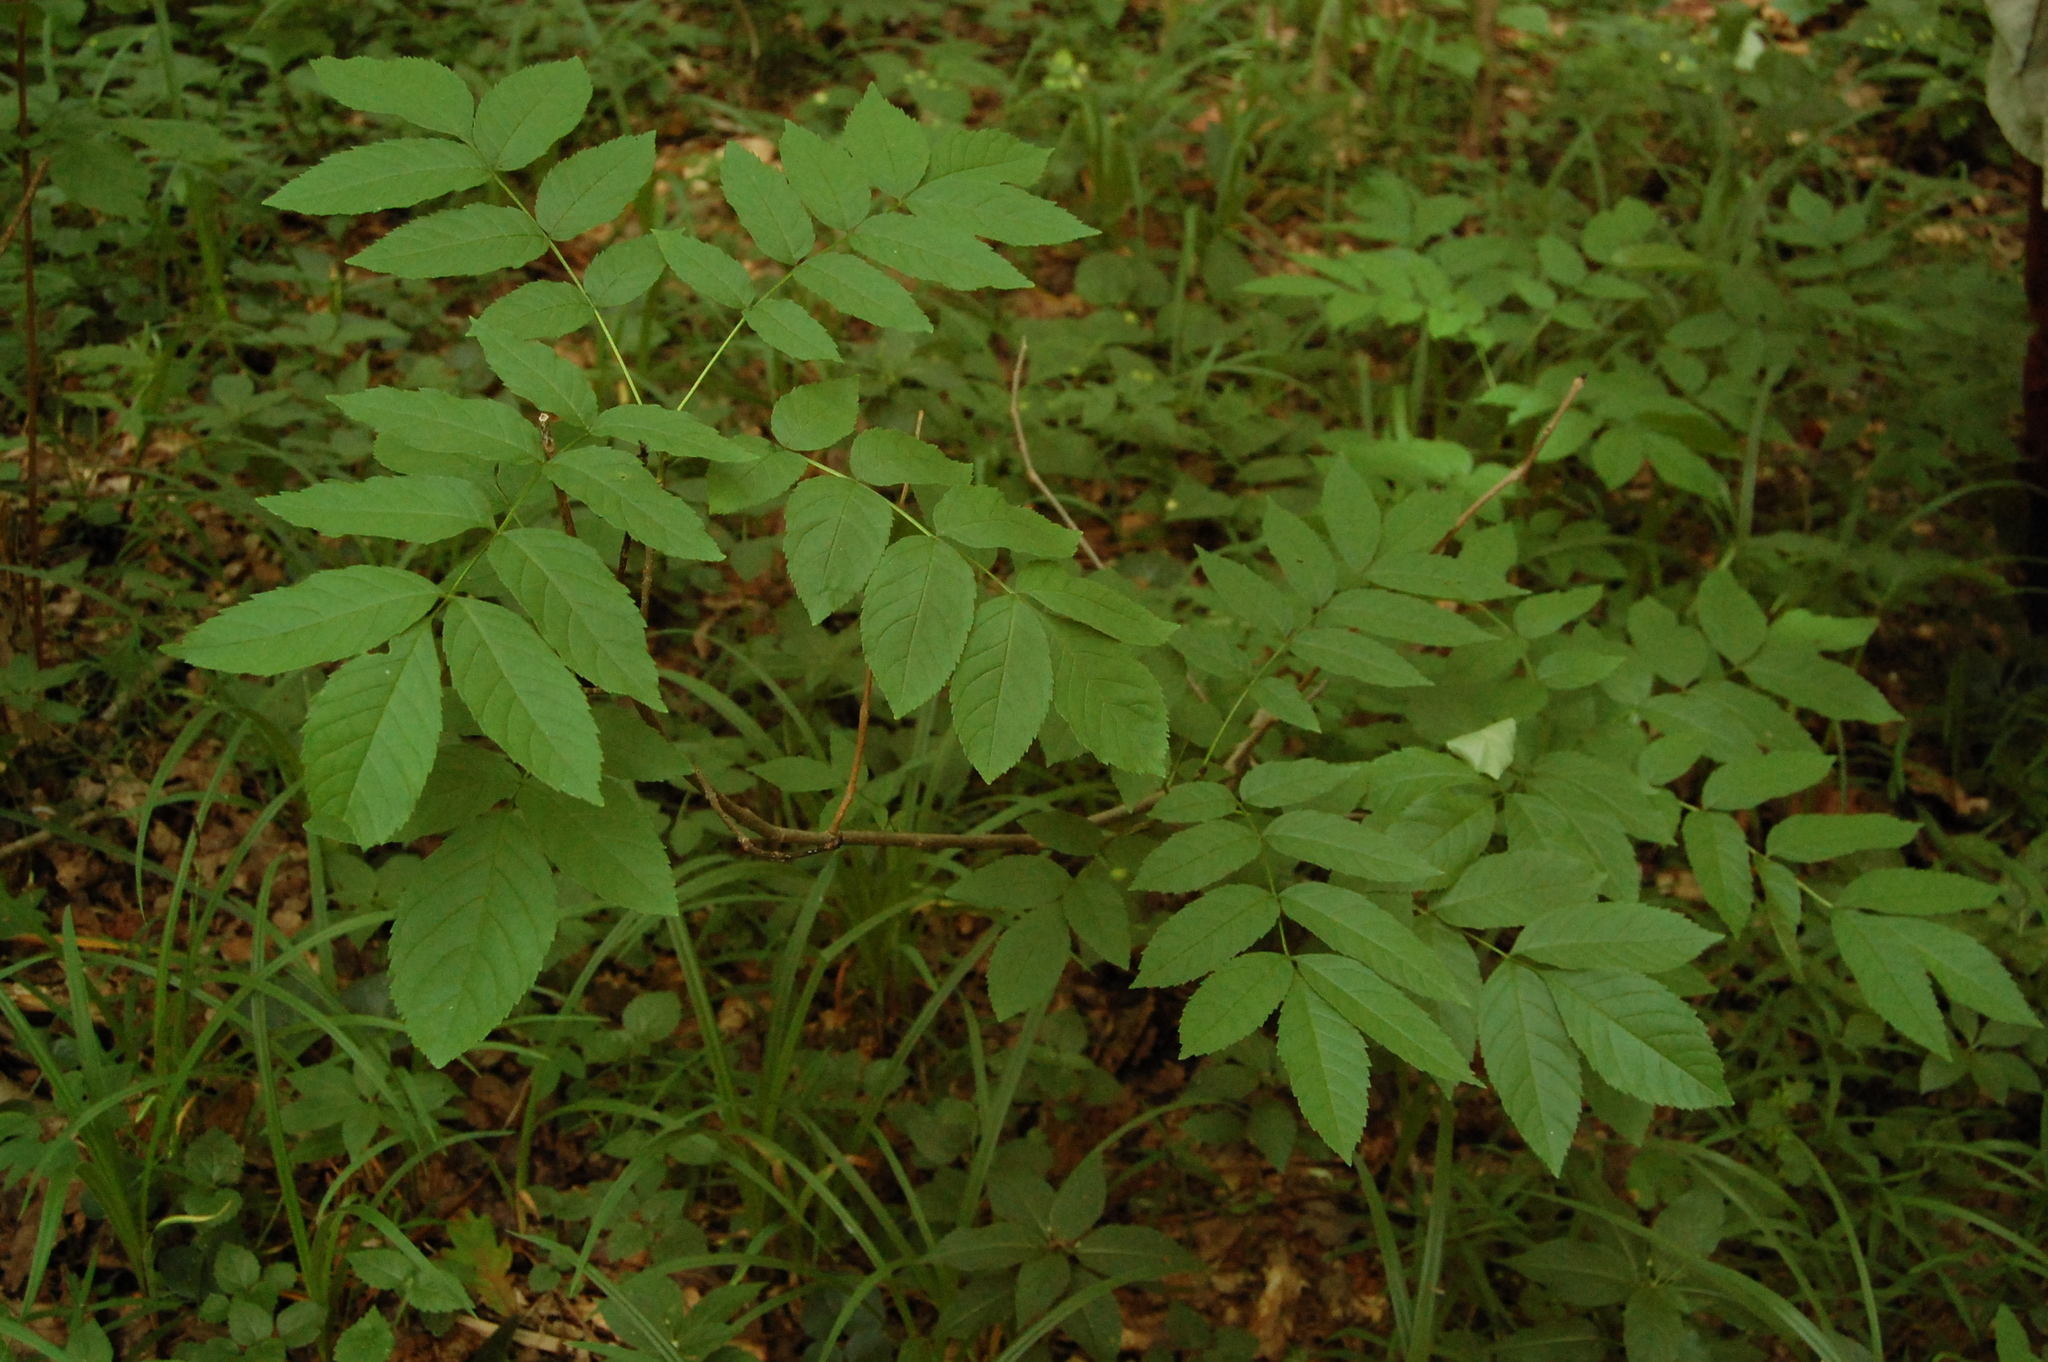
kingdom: Plantae
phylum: Tracheophyta
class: Magnoliopsida
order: Lamiales
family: Oleaceae
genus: Fraxinus
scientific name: Fraxinus excelsior
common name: European ash
